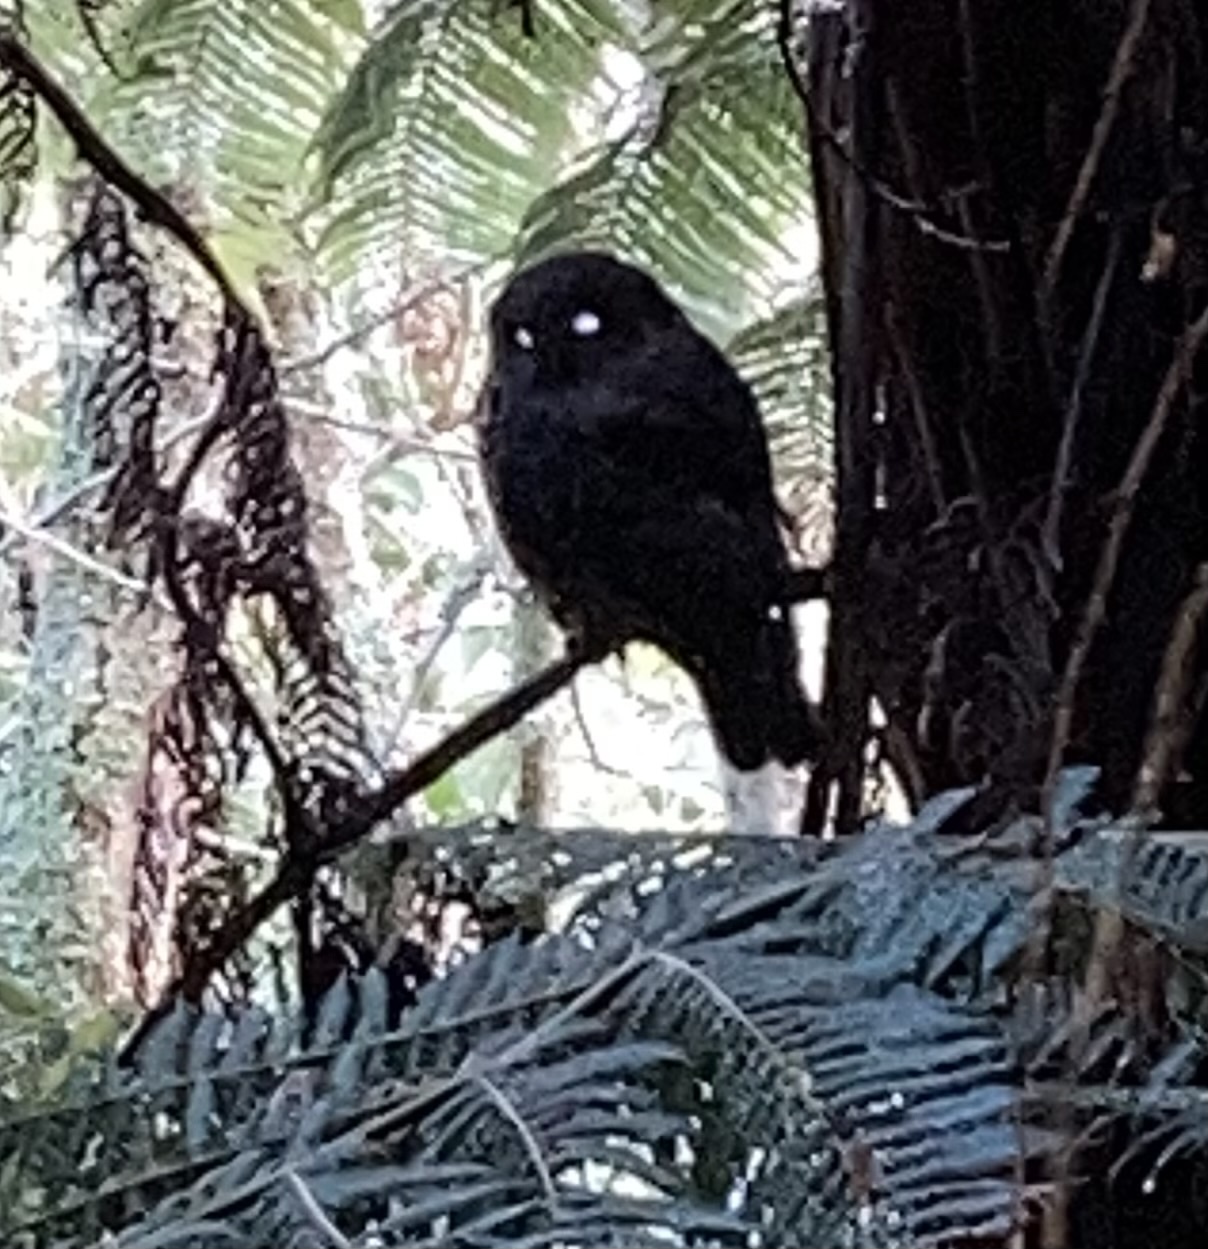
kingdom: Animalia
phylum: Chordata
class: Aves
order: Strigiformes
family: Strigidae
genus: Ninox
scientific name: Ninox novaeseelandiae
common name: Morepork
